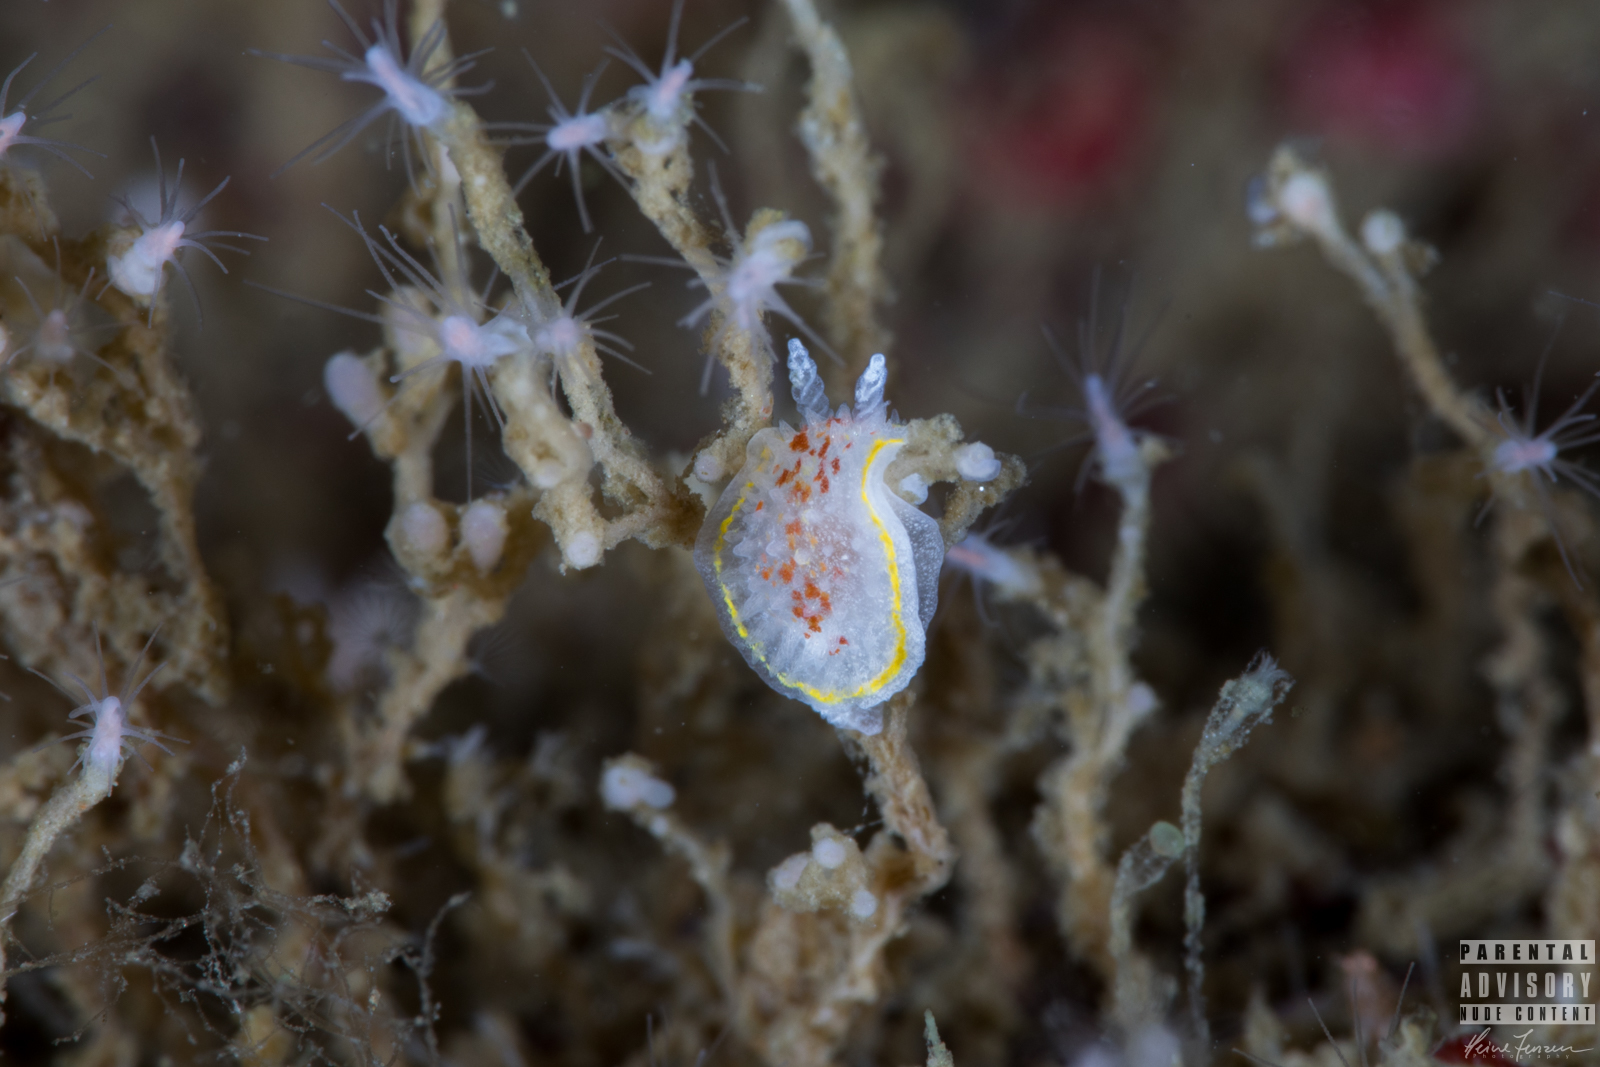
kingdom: Animalia
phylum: Mollusca
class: Gastropoda
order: Nudibranchia
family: Calycidorididae
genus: Diaphorodoris
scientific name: Diaphorodoris luteocincta
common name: Fried egg nudibranch
